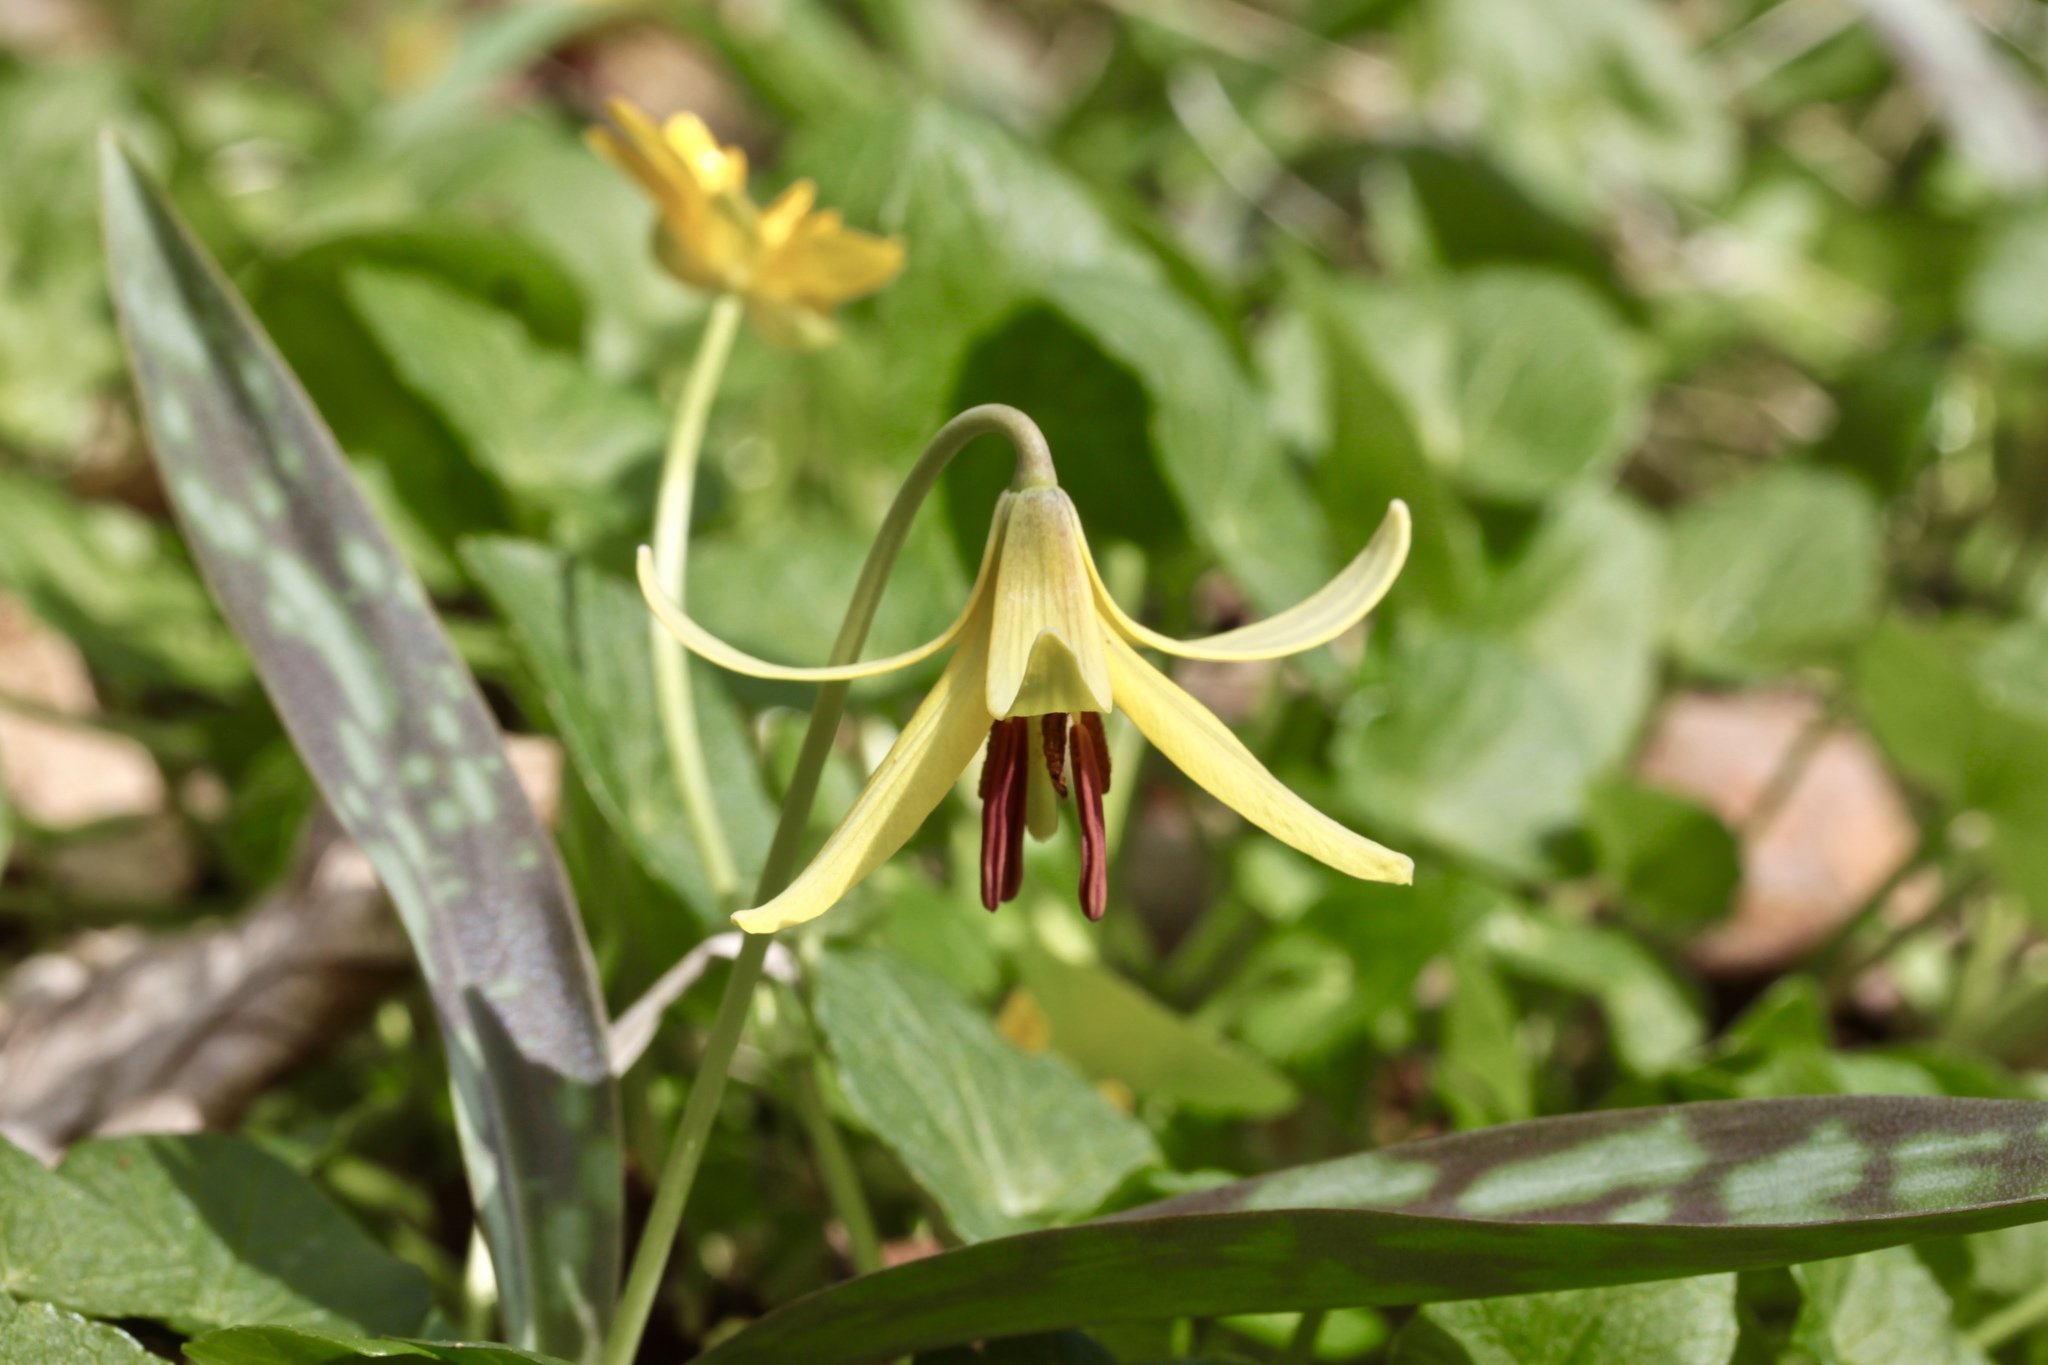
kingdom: Plantae
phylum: Tracheophyta
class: Liliopsida
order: Liliales
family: Liliaceae
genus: Erythronium
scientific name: Erythronium americanum
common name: Yellow adder's-tongue
